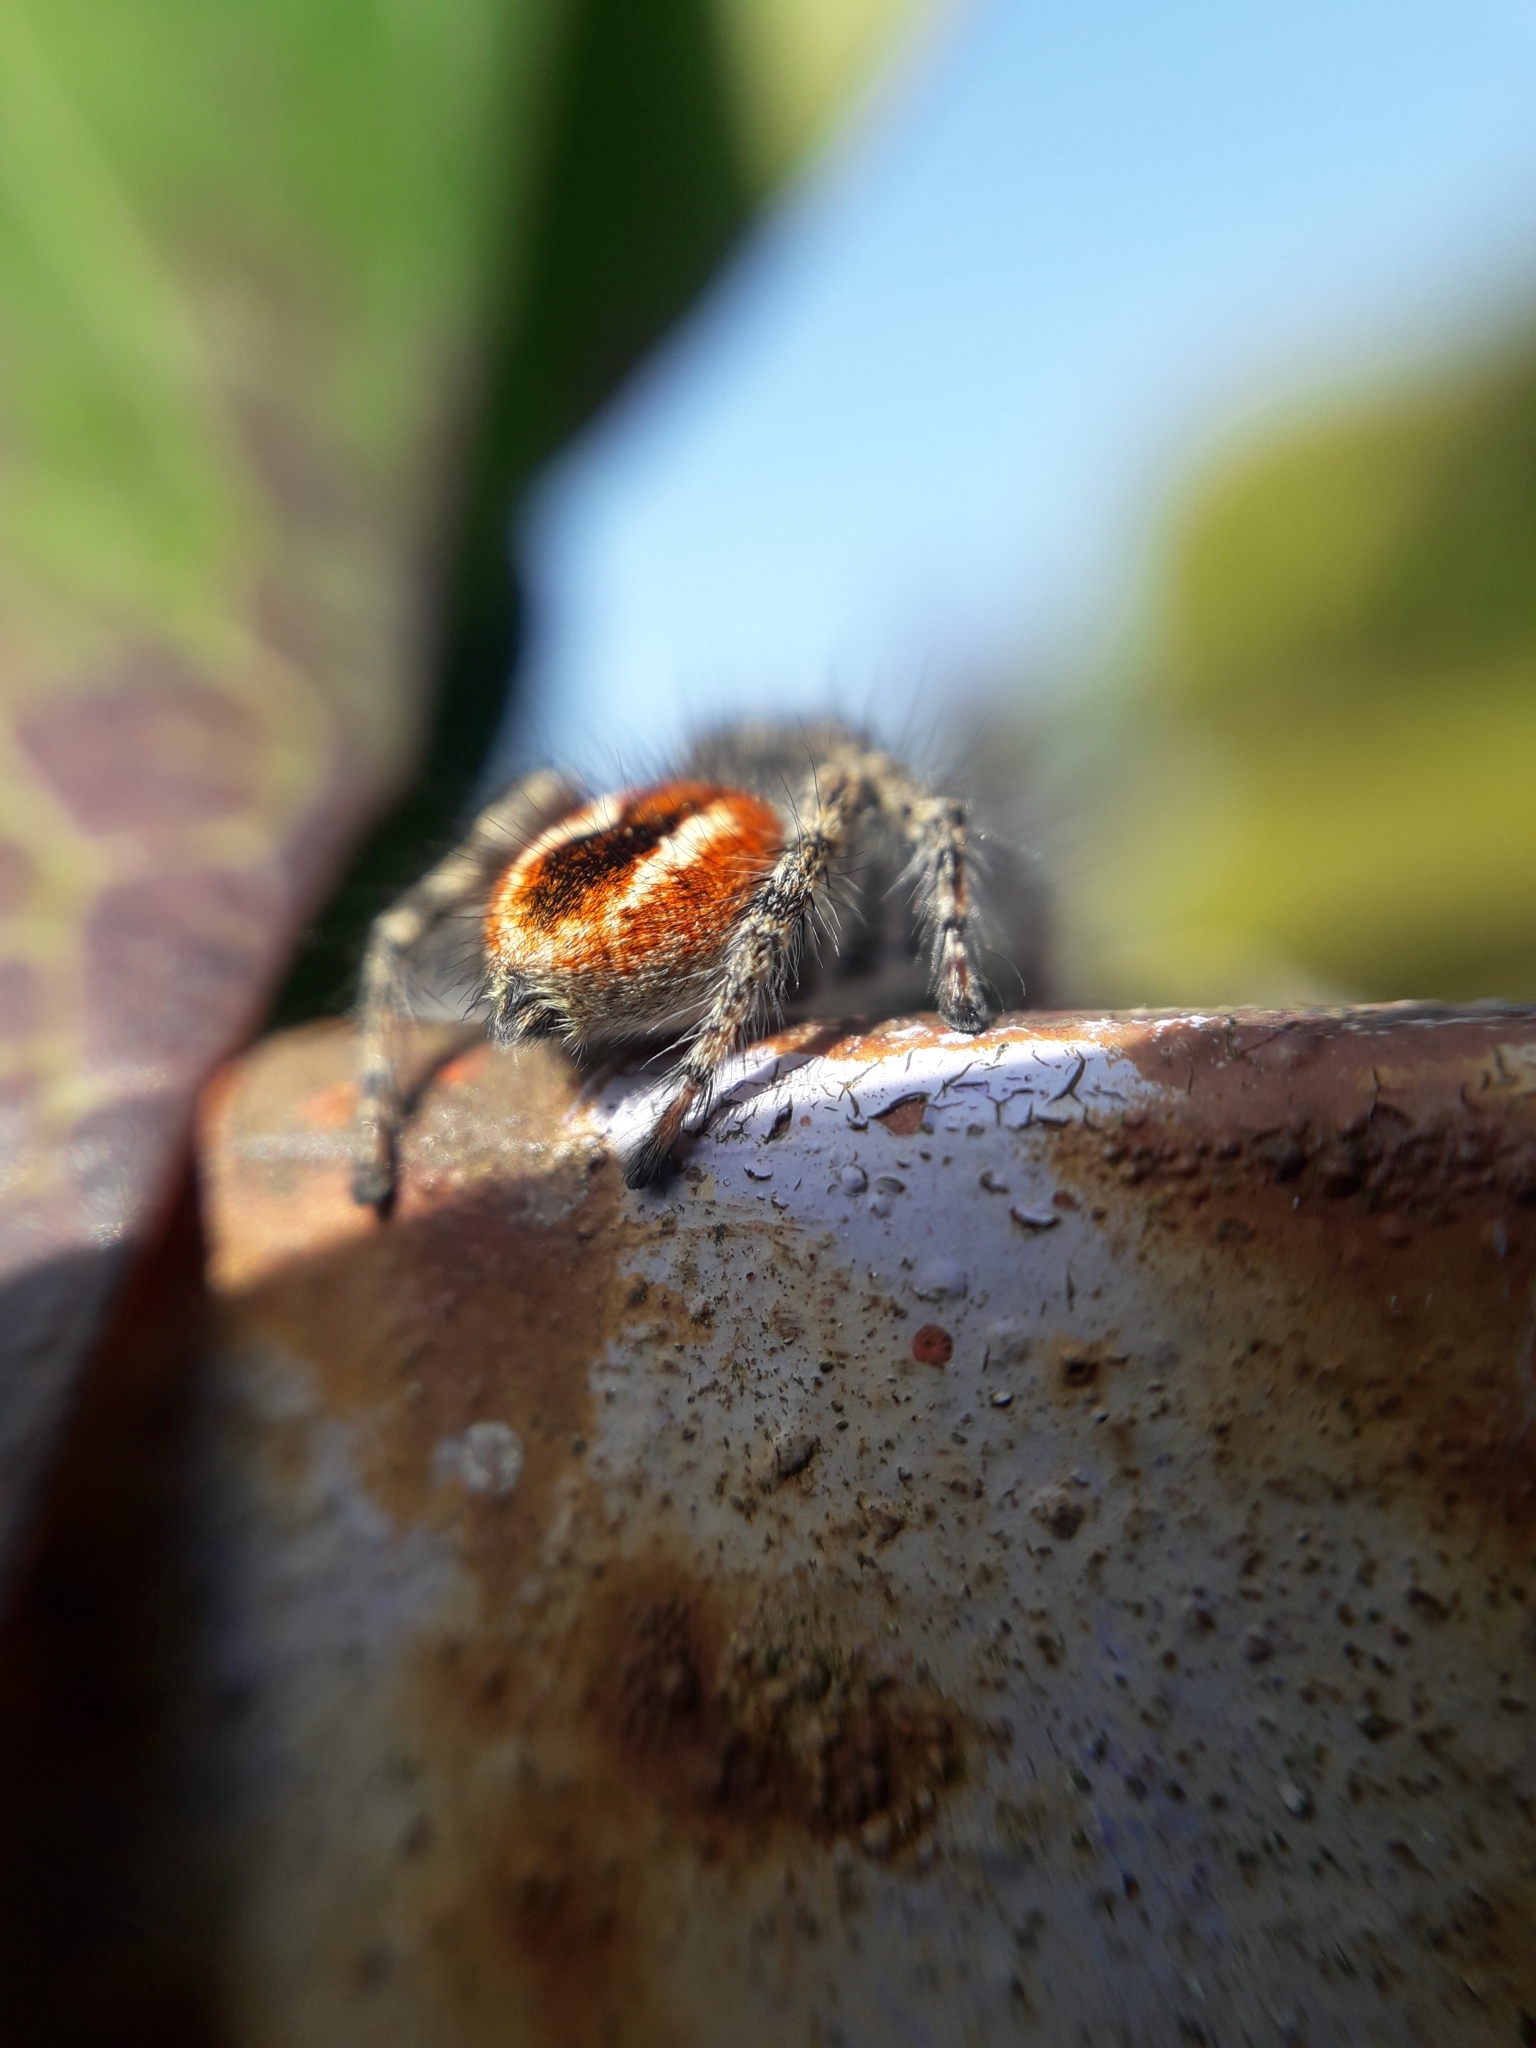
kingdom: Animalia
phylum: Arthropoda
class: Arachnida
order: Araneae
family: Salticidae
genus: Philaeus
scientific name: Philaeus chrysops
